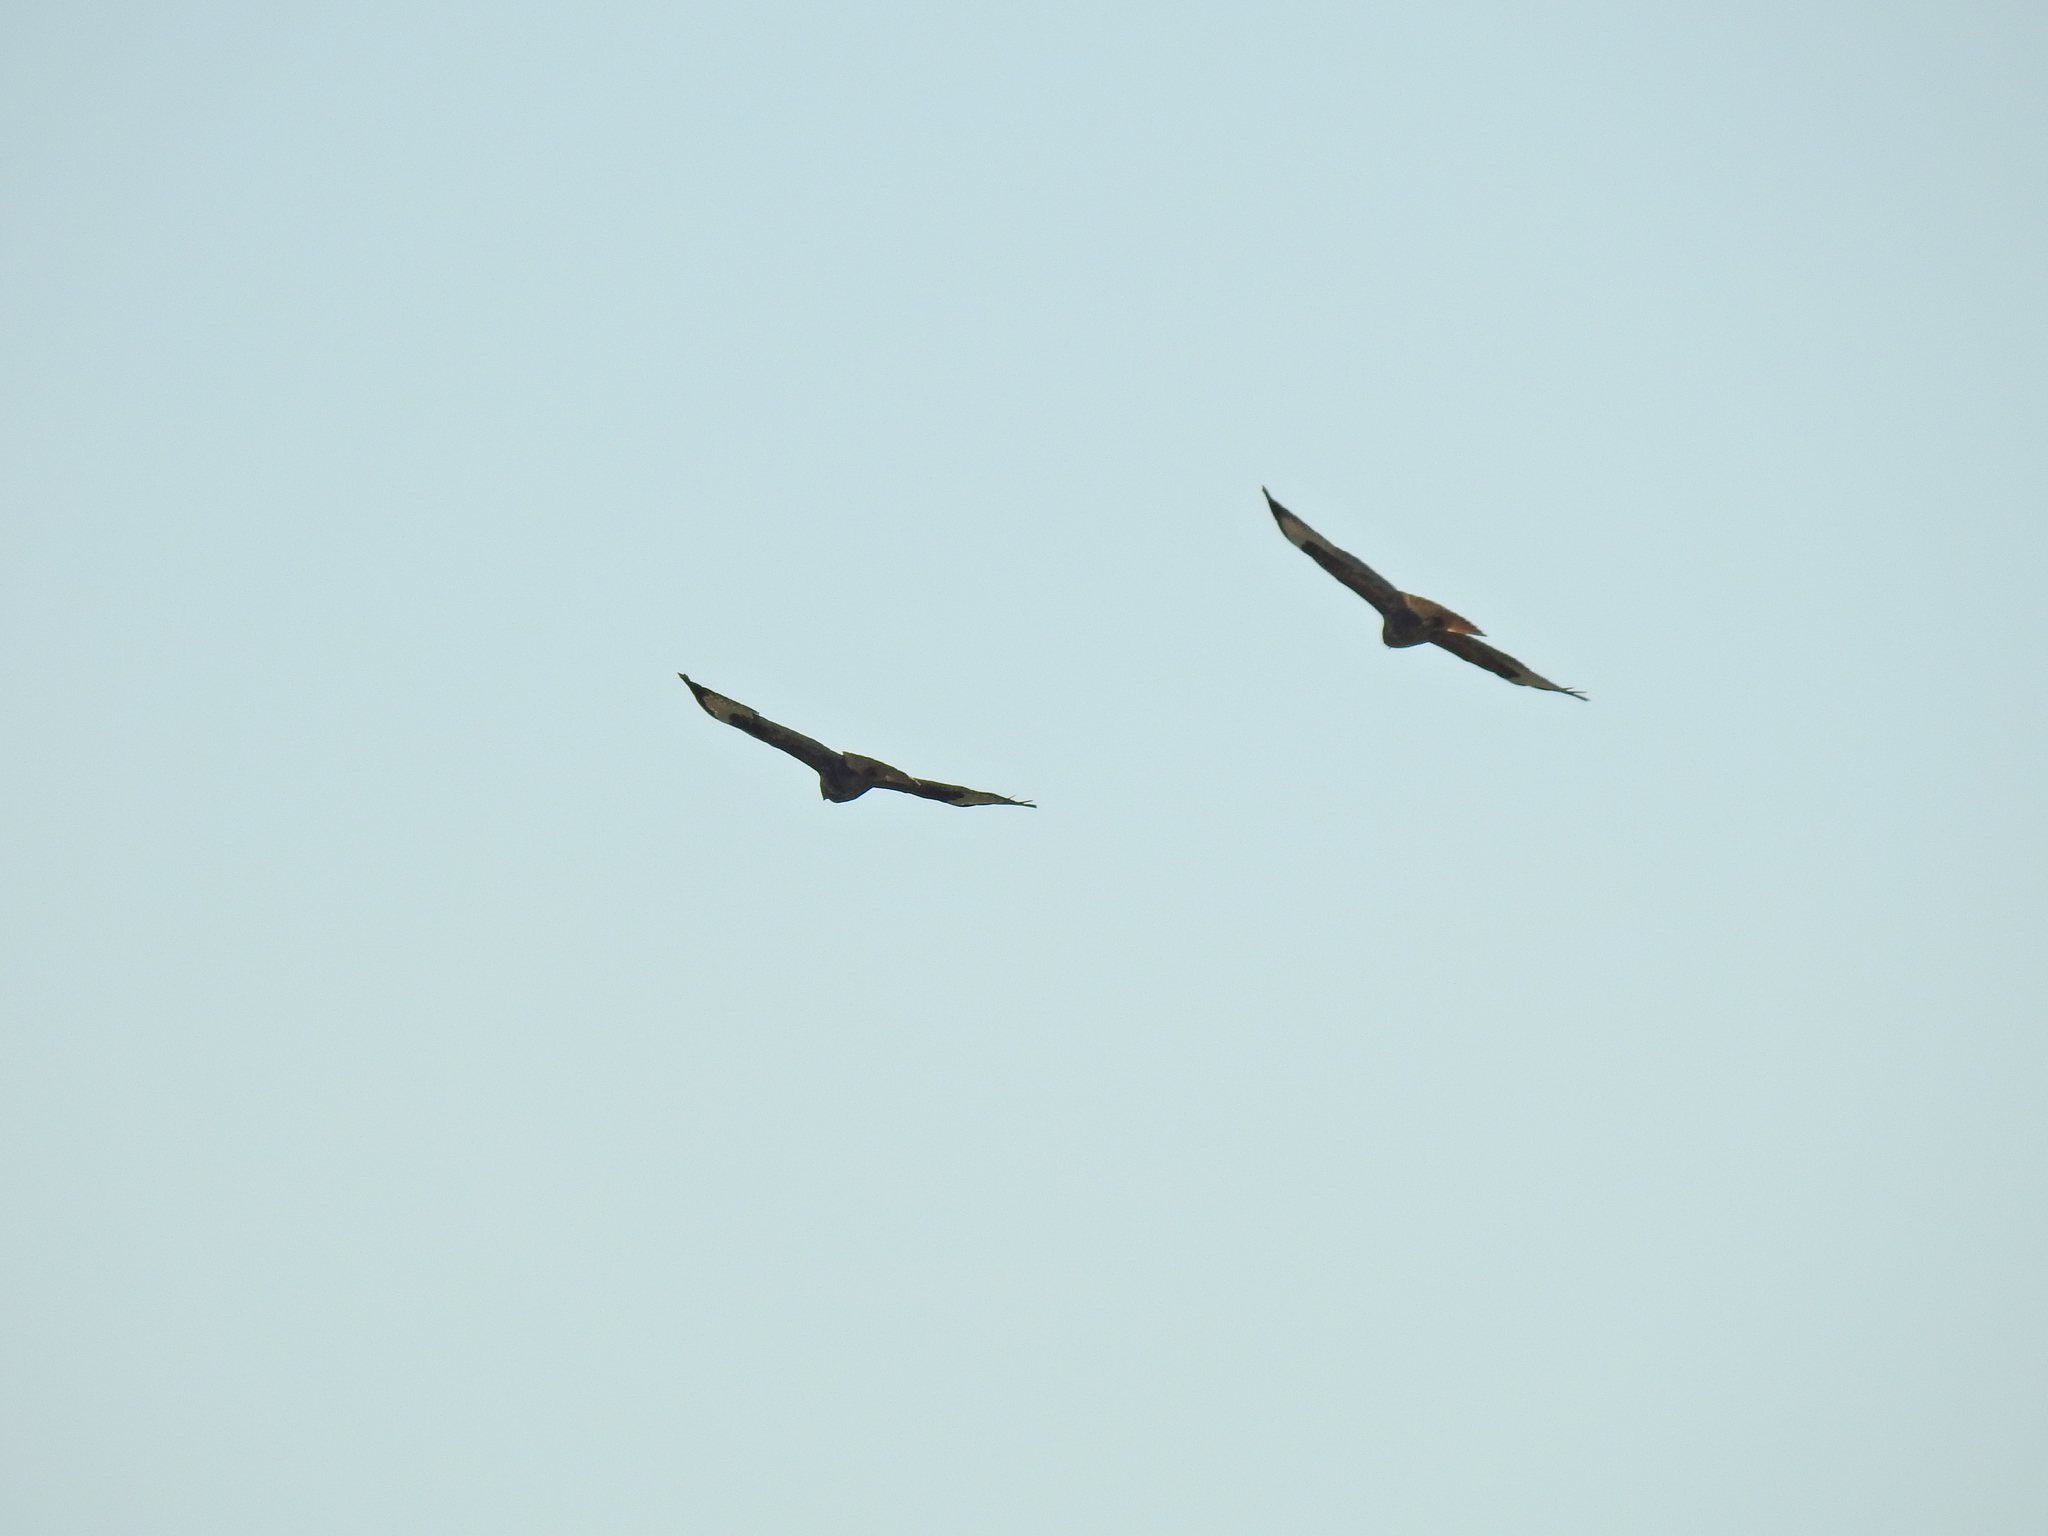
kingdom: Animalia
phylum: Chordata
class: Aves
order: Accipitriformes
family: Accipitridae
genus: Buteo
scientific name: Buteo buteo
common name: Common buzzard
